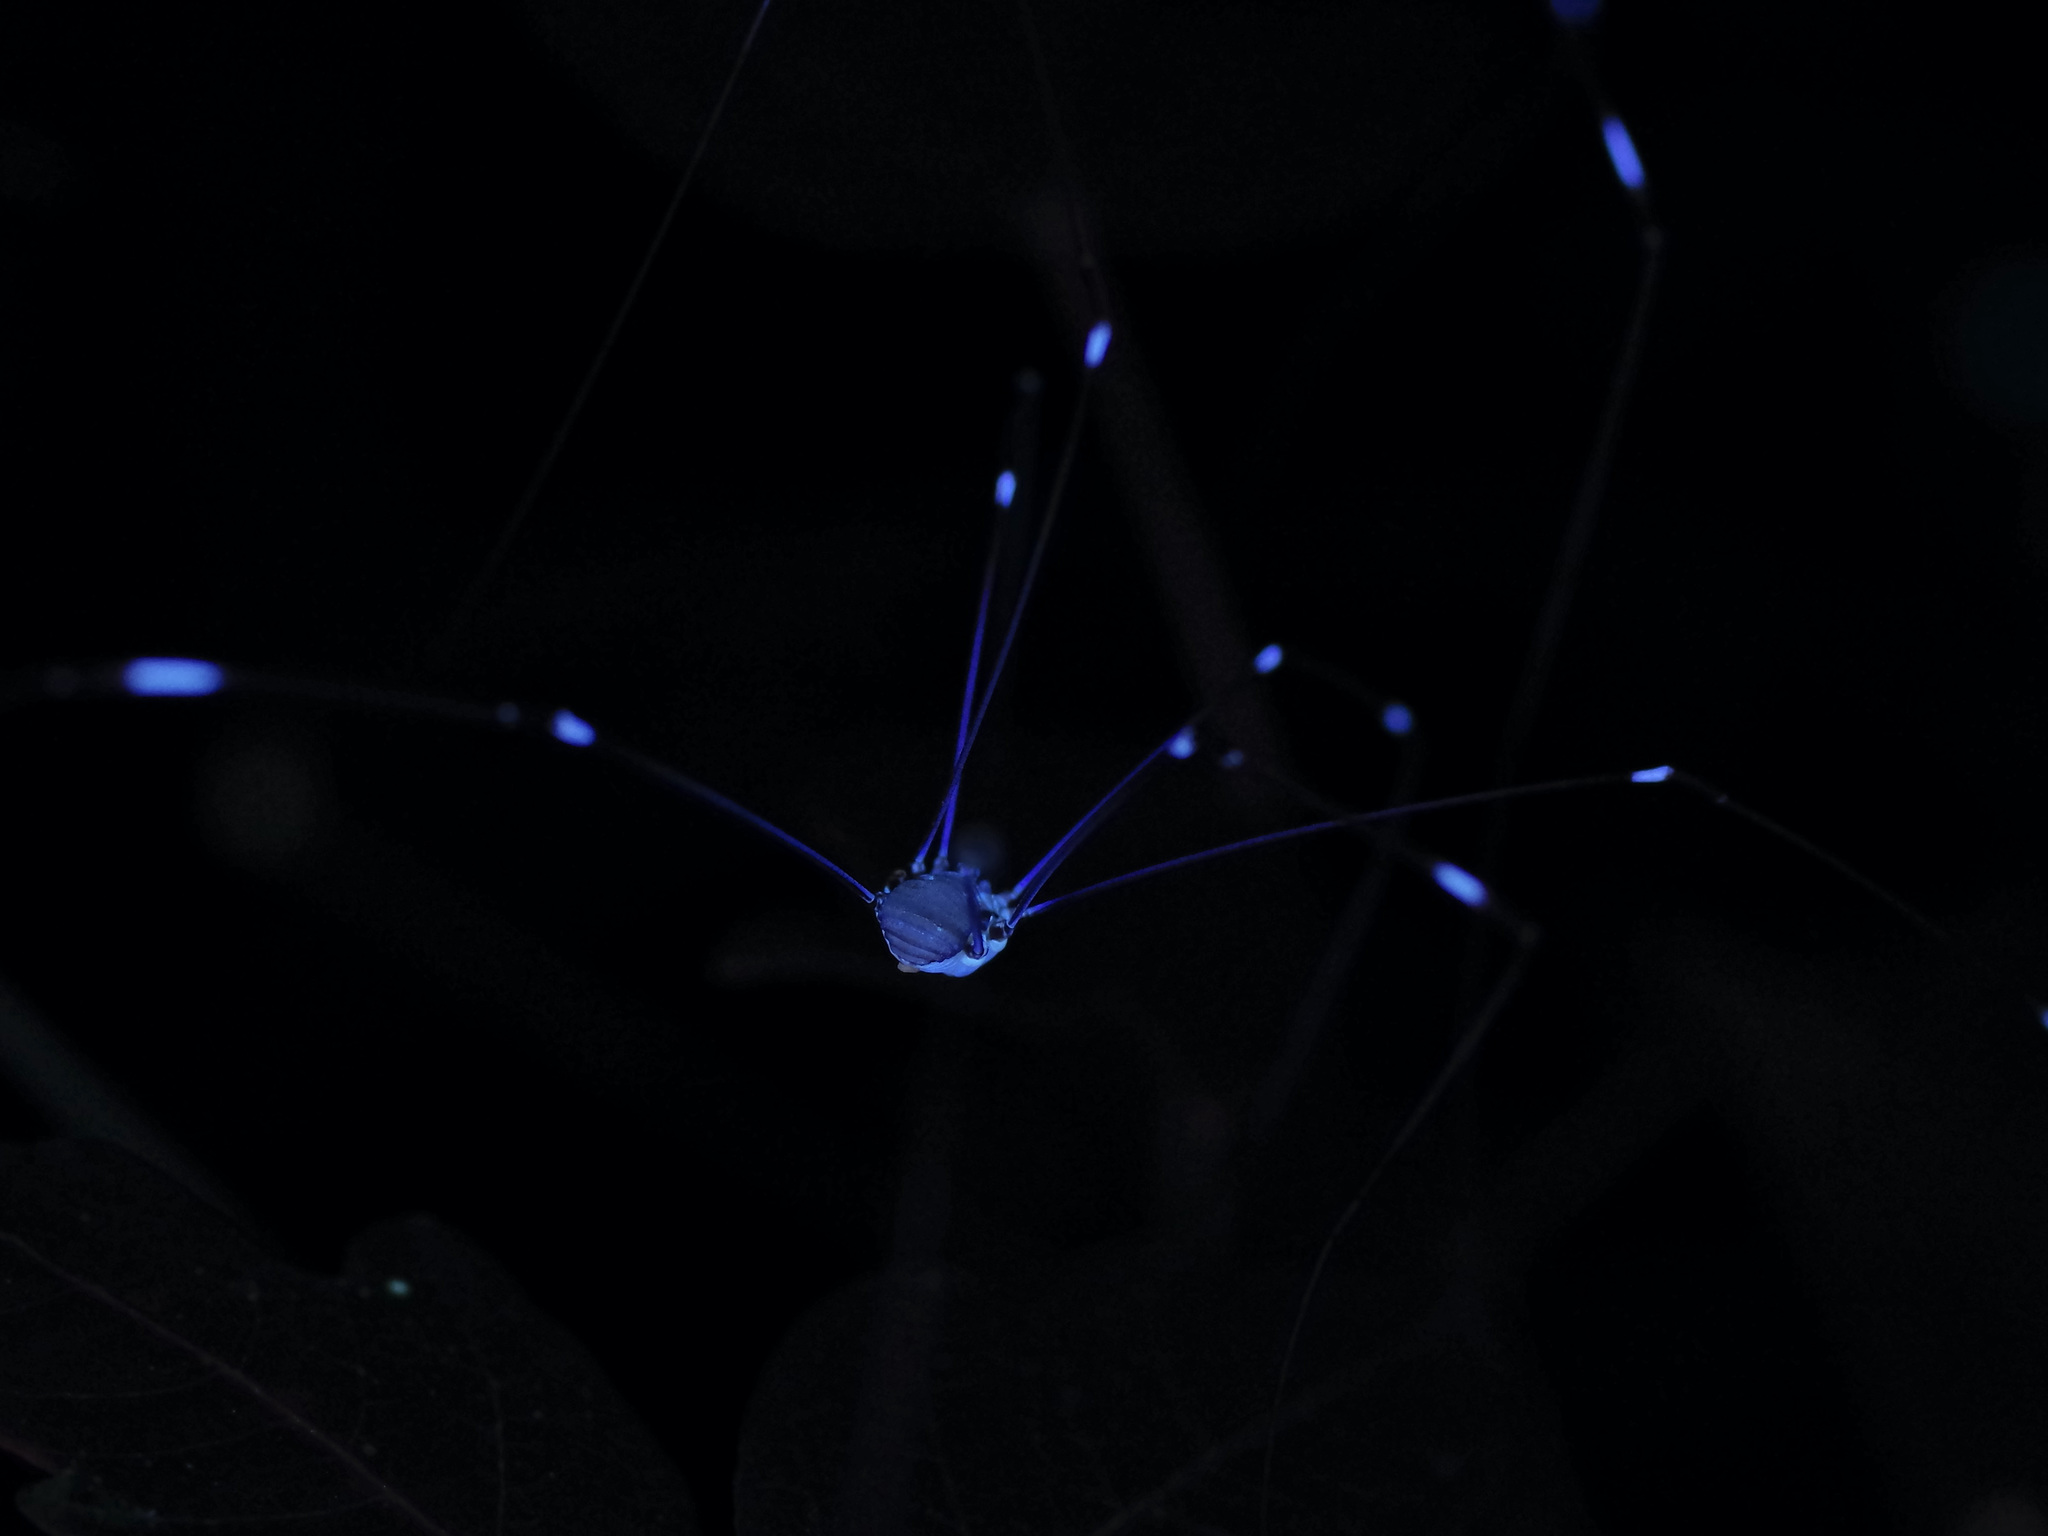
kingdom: Animalia
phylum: Arthropoda
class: Arachnida
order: Opiliones
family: Sclerosomatidae
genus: Leiobunum
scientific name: Leiobunum townsendi
